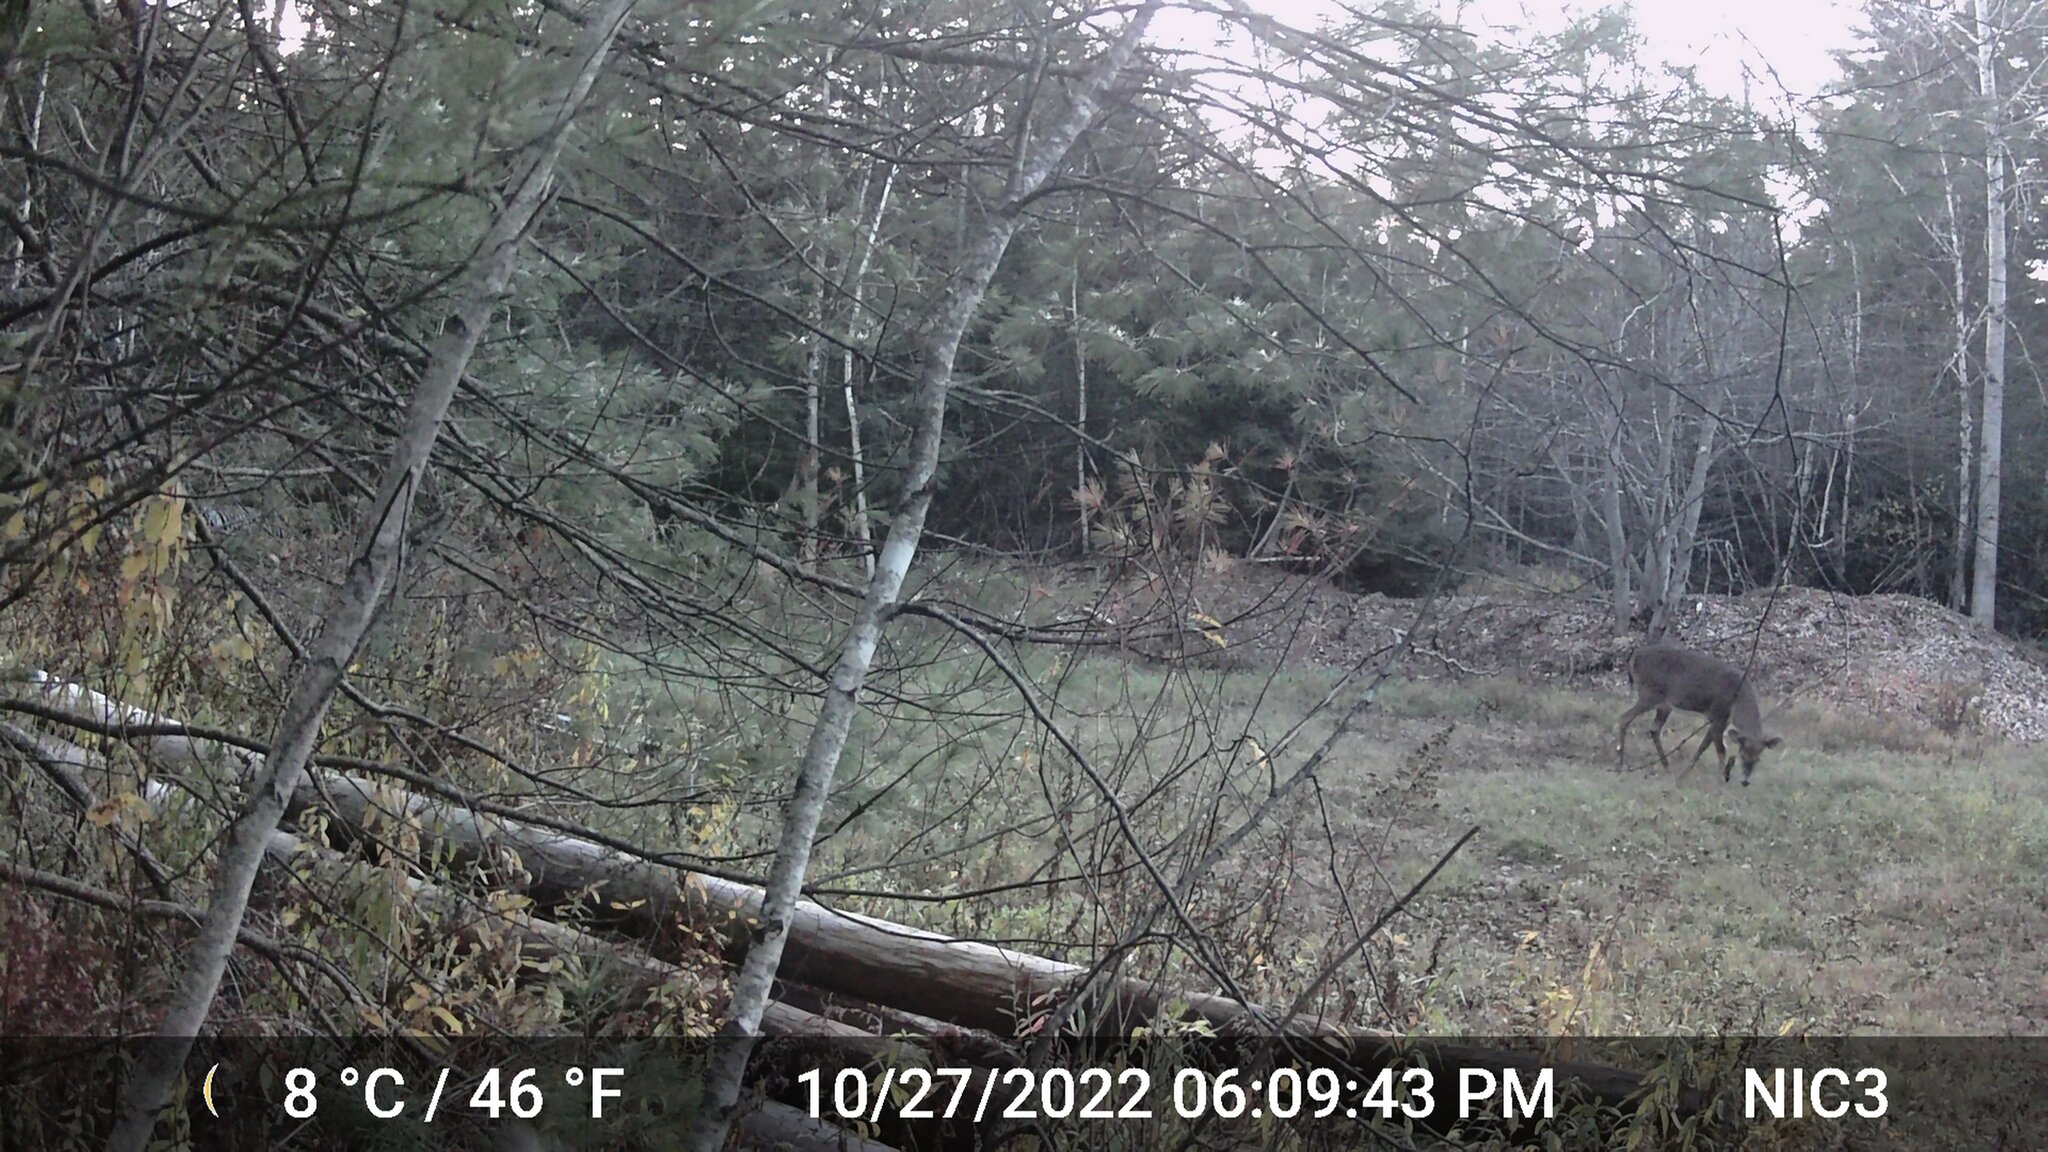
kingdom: Animalia
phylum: Chordata
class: Mammalia
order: Artiodactyla
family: Cervidae
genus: Odocoileus
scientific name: Odocoileus virginianus
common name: White-tailed deer
